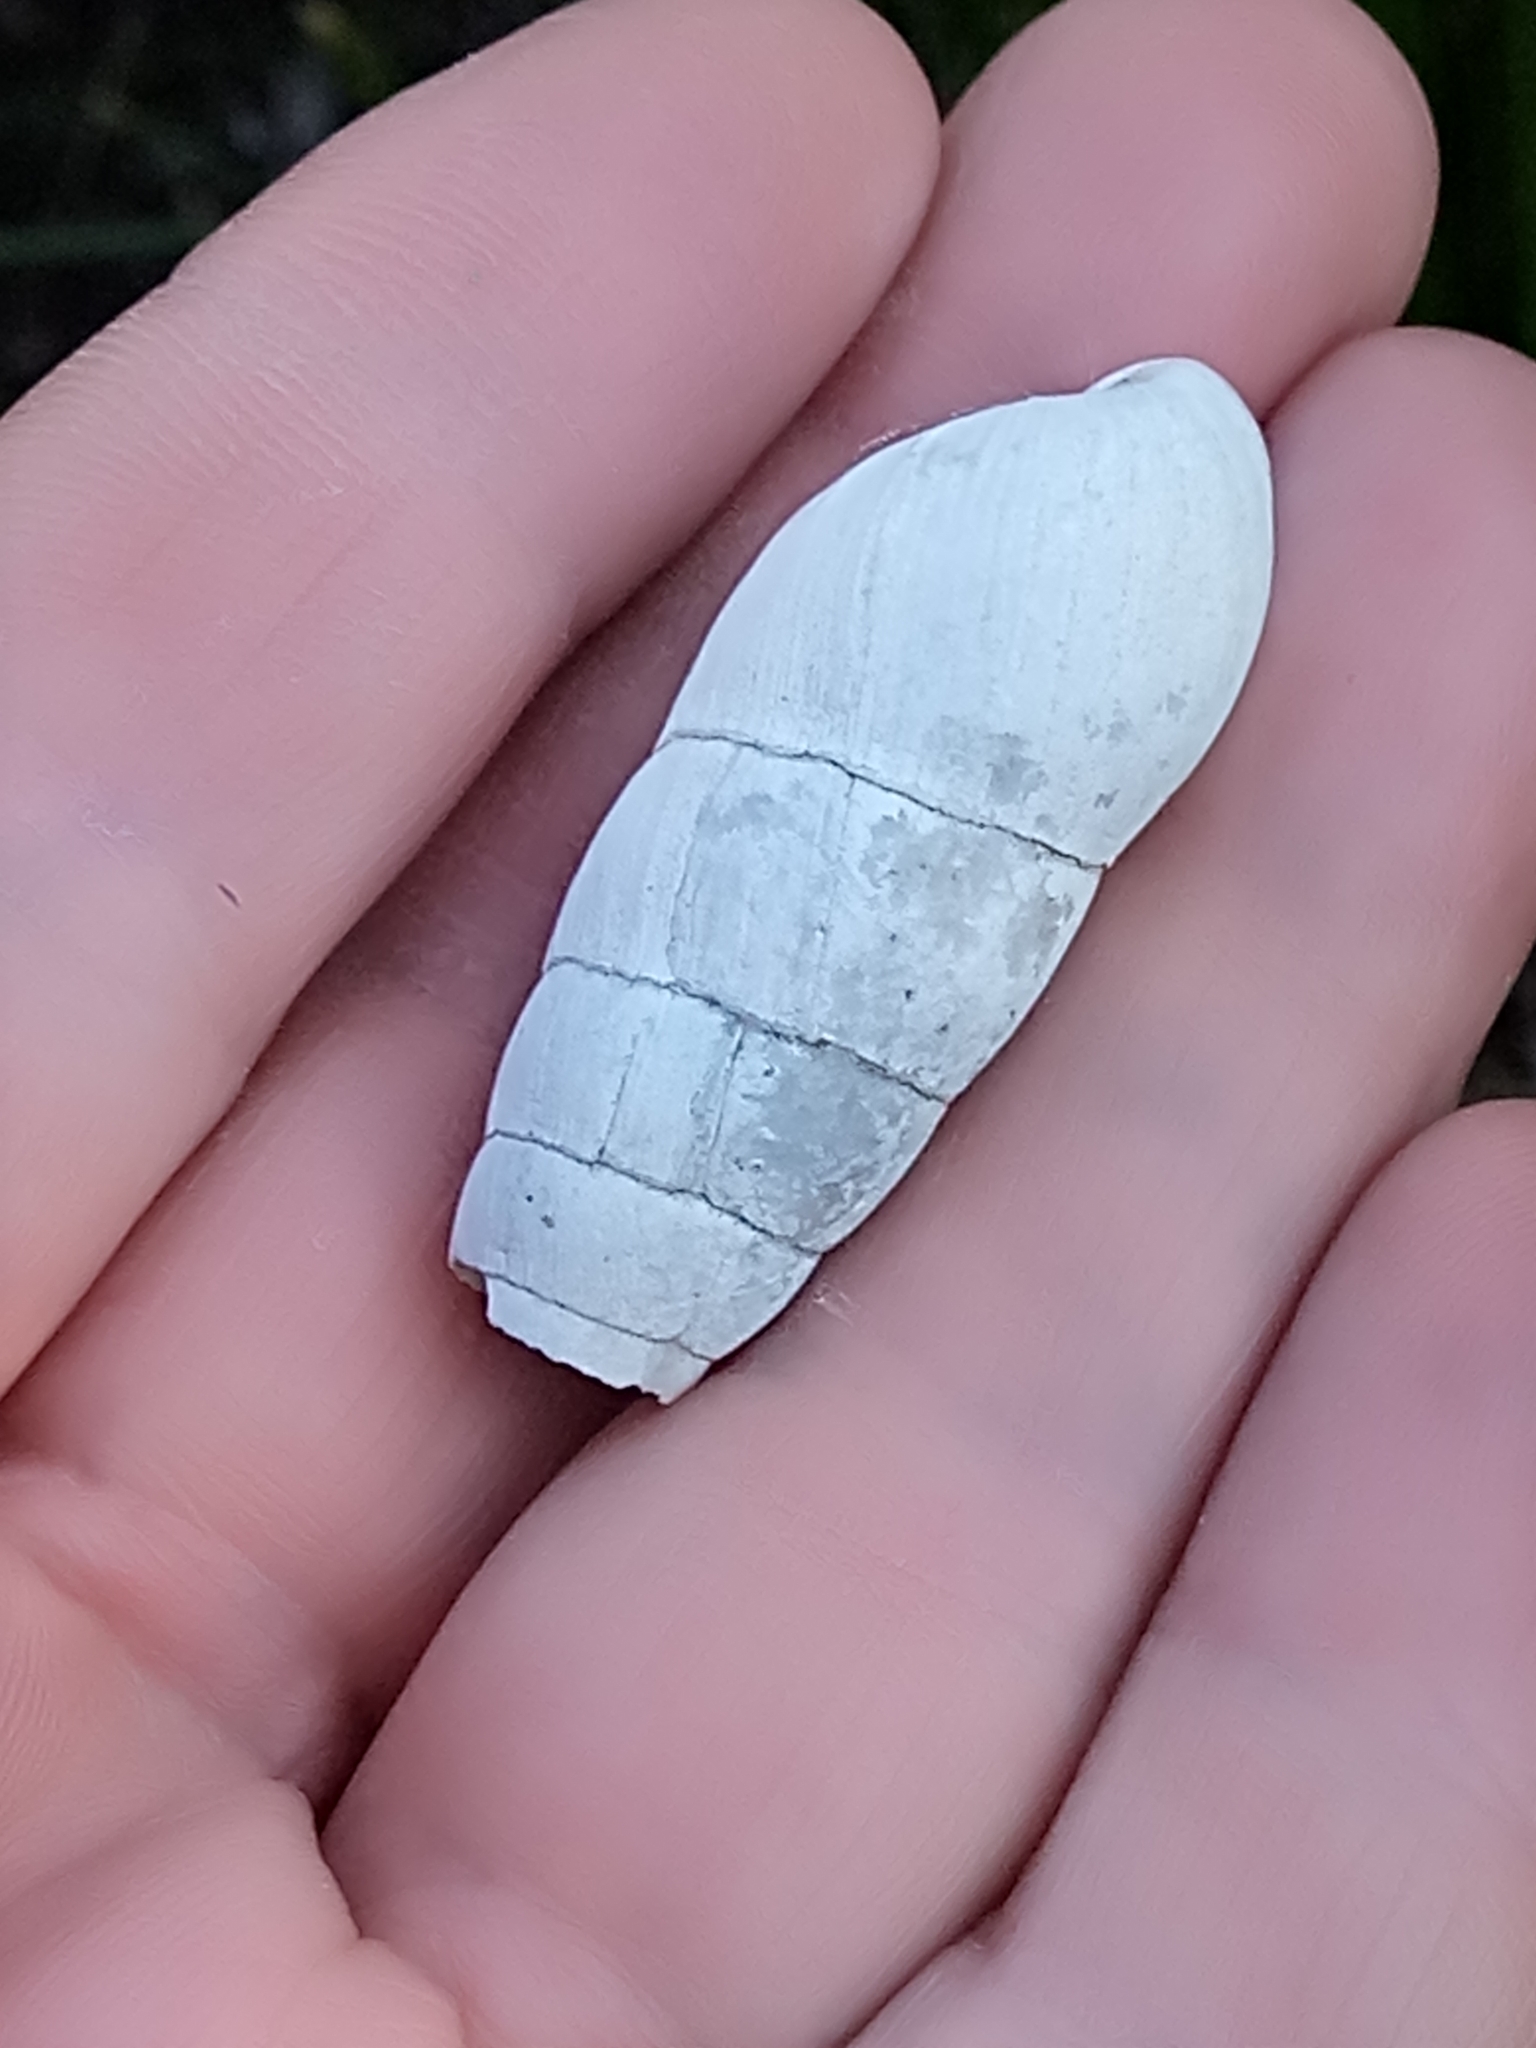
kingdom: Animalia
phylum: Mollusca
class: Gastropoda
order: Stylommatophora
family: Achatinidae
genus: Rumina
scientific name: Rumina decollata
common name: Decollate snail
